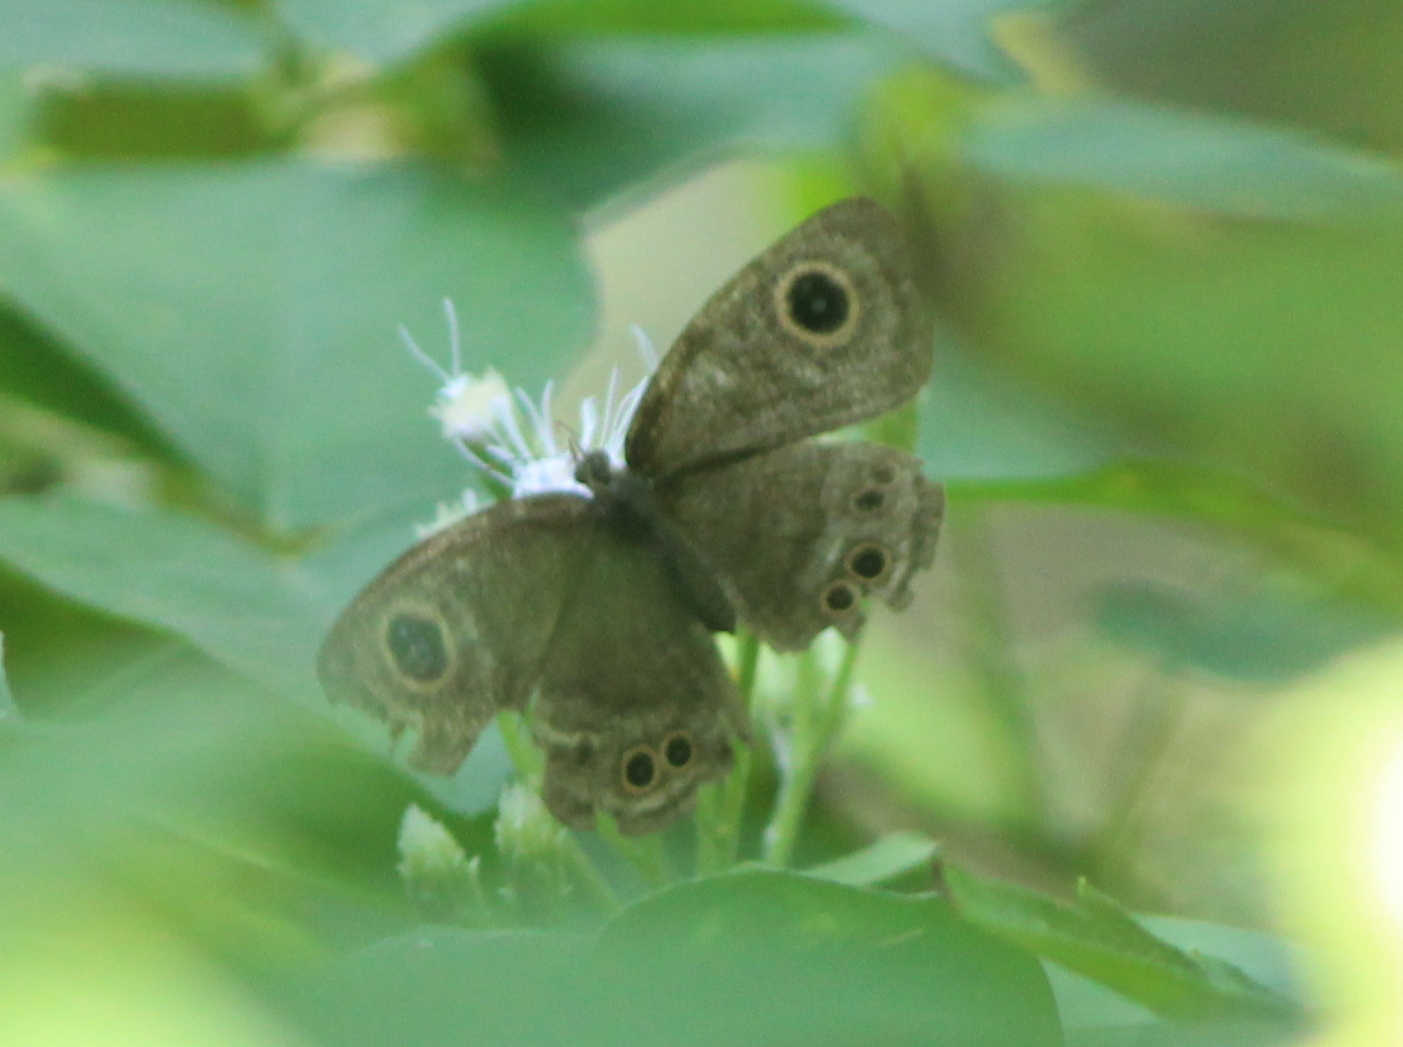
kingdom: Animalia
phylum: Arthropoda
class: Insecta
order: Lepidoptera
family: Nymphalidae
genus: Ypthima
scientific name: Ypthima baldus
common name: Common five-ring
